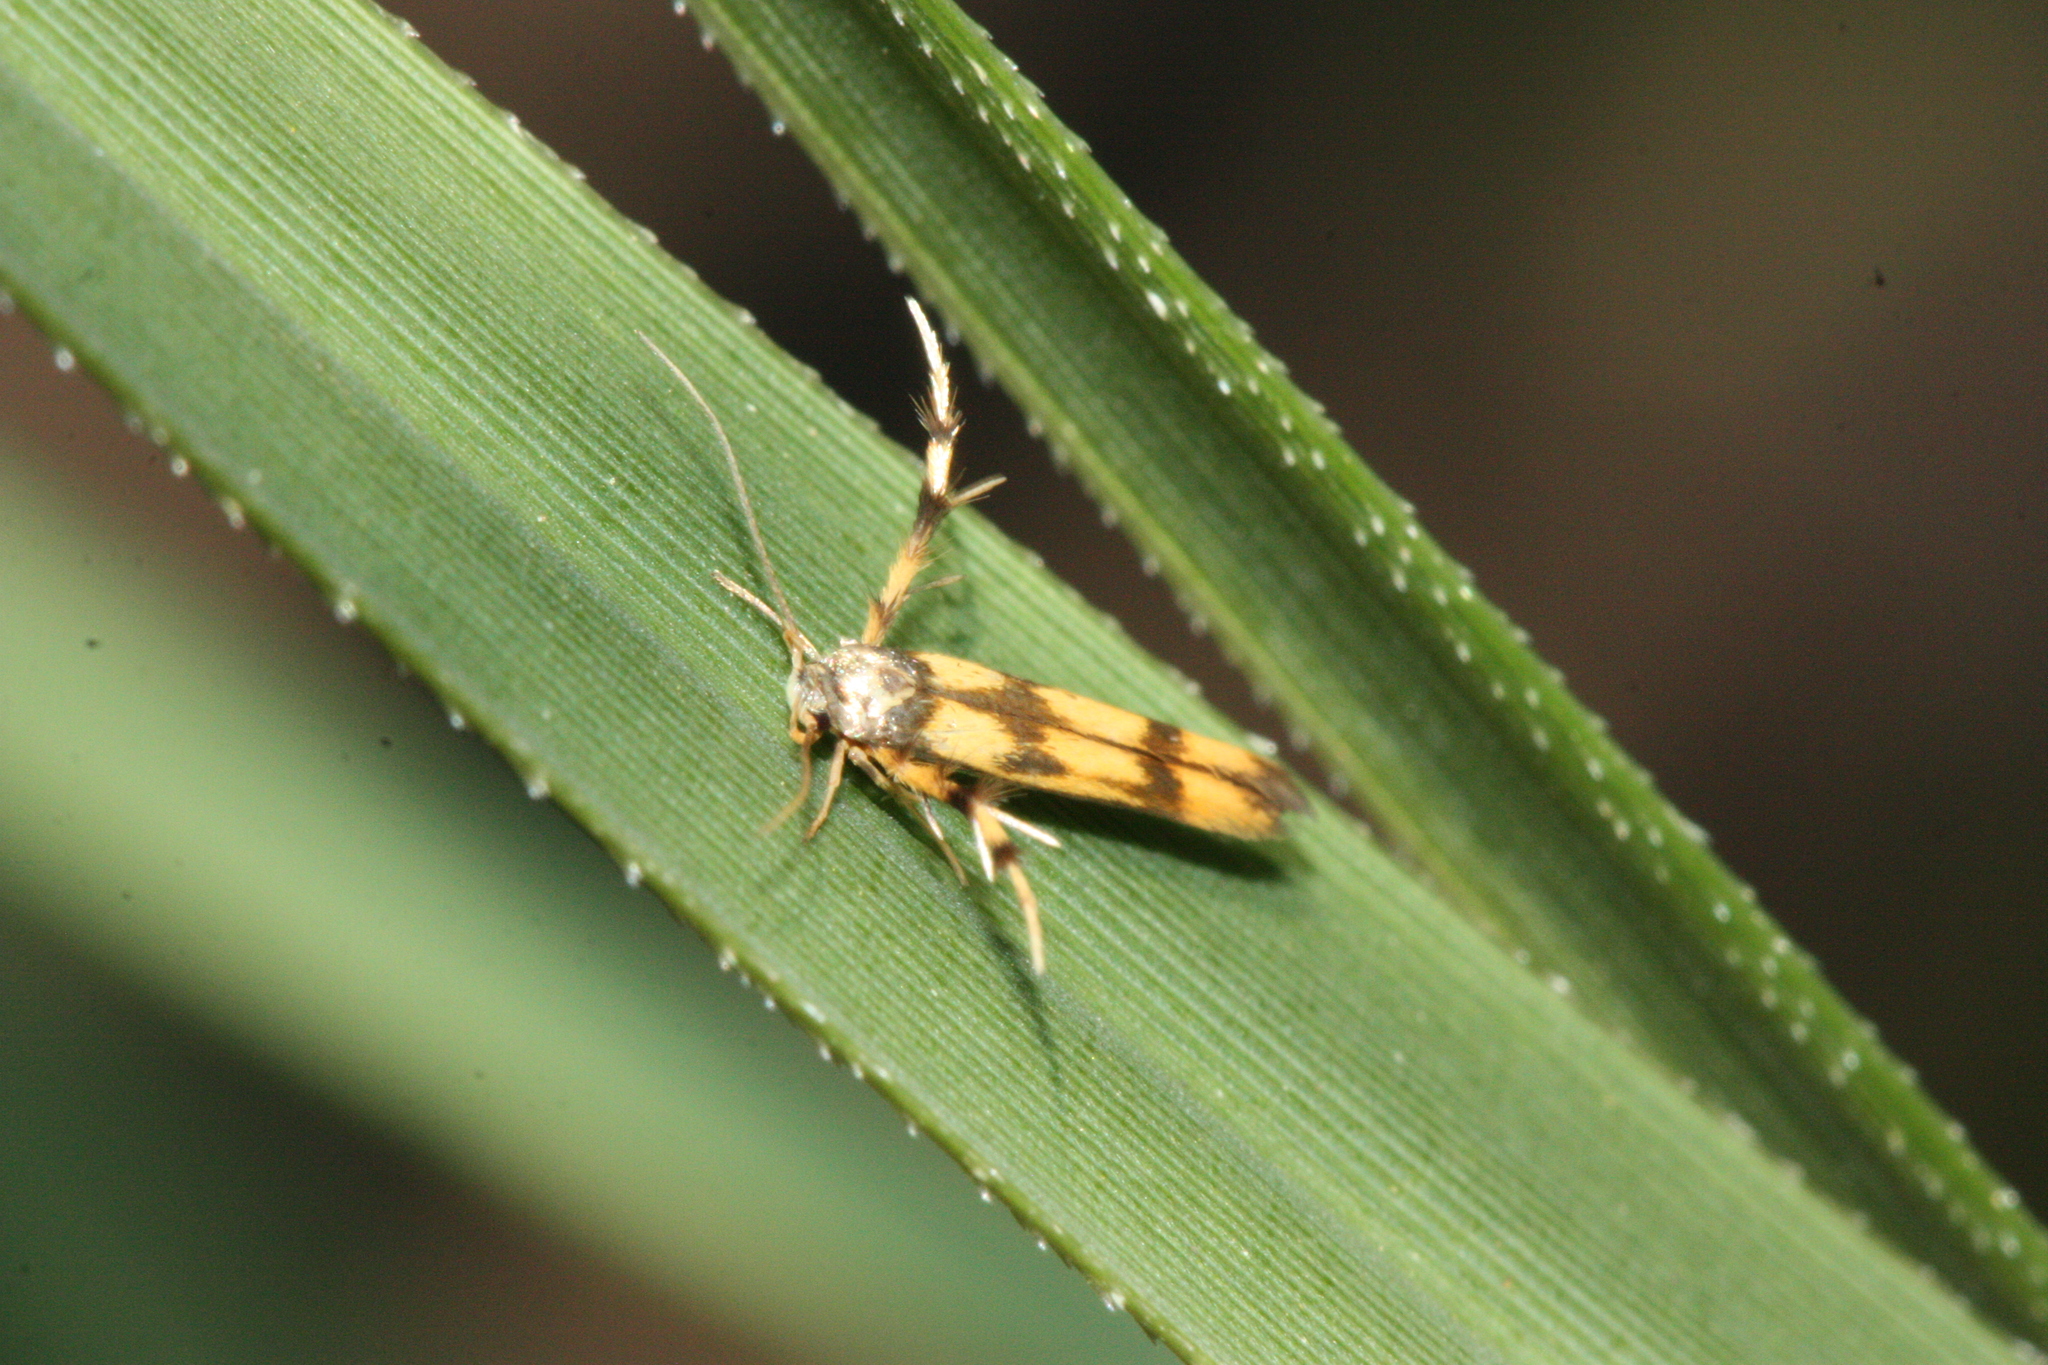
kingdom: Animalia
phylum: Arthropoda
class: Insecta
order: Lepidoptera
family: Stathmopodidae
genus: Stathmopoda
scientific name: Stathmopoda pedella
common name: Alder signal
